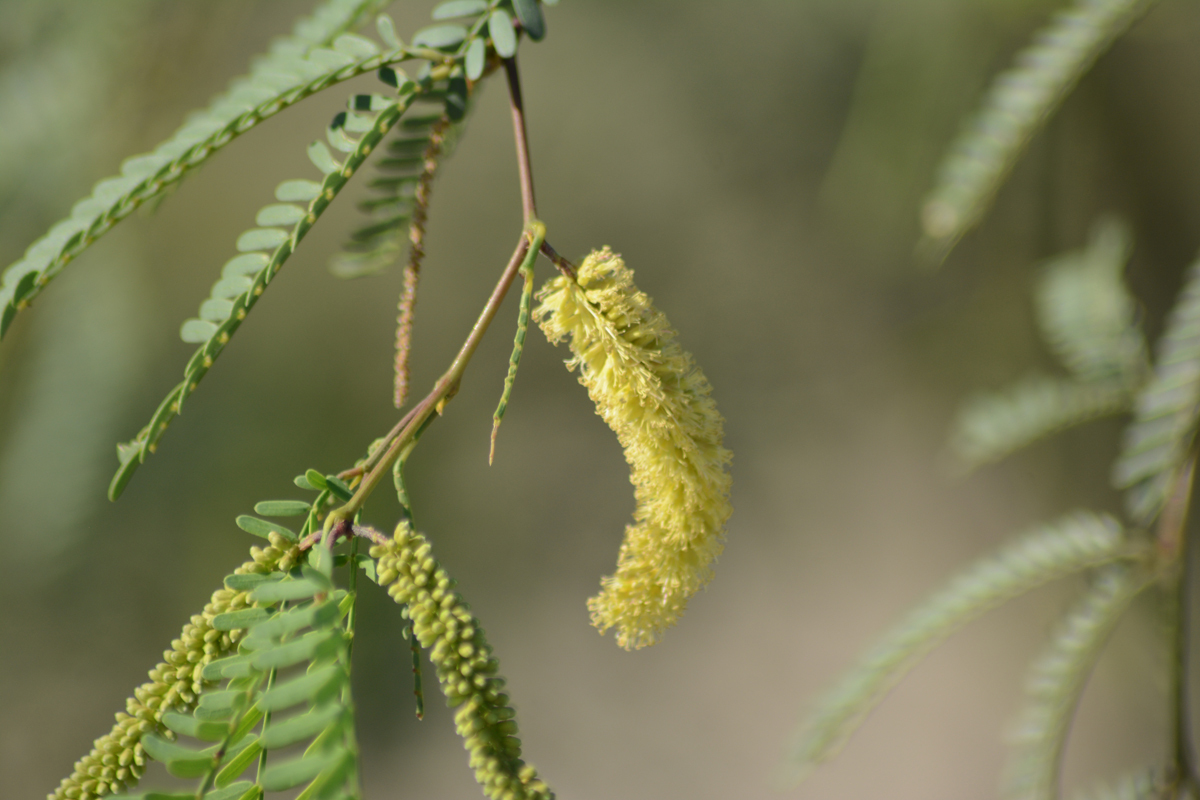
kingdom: Plantae
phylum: Tracheophyta
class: Magnoliopsida
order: Fabales
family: Fabaceae
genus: Prosopis
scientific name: Prosopis articulata
